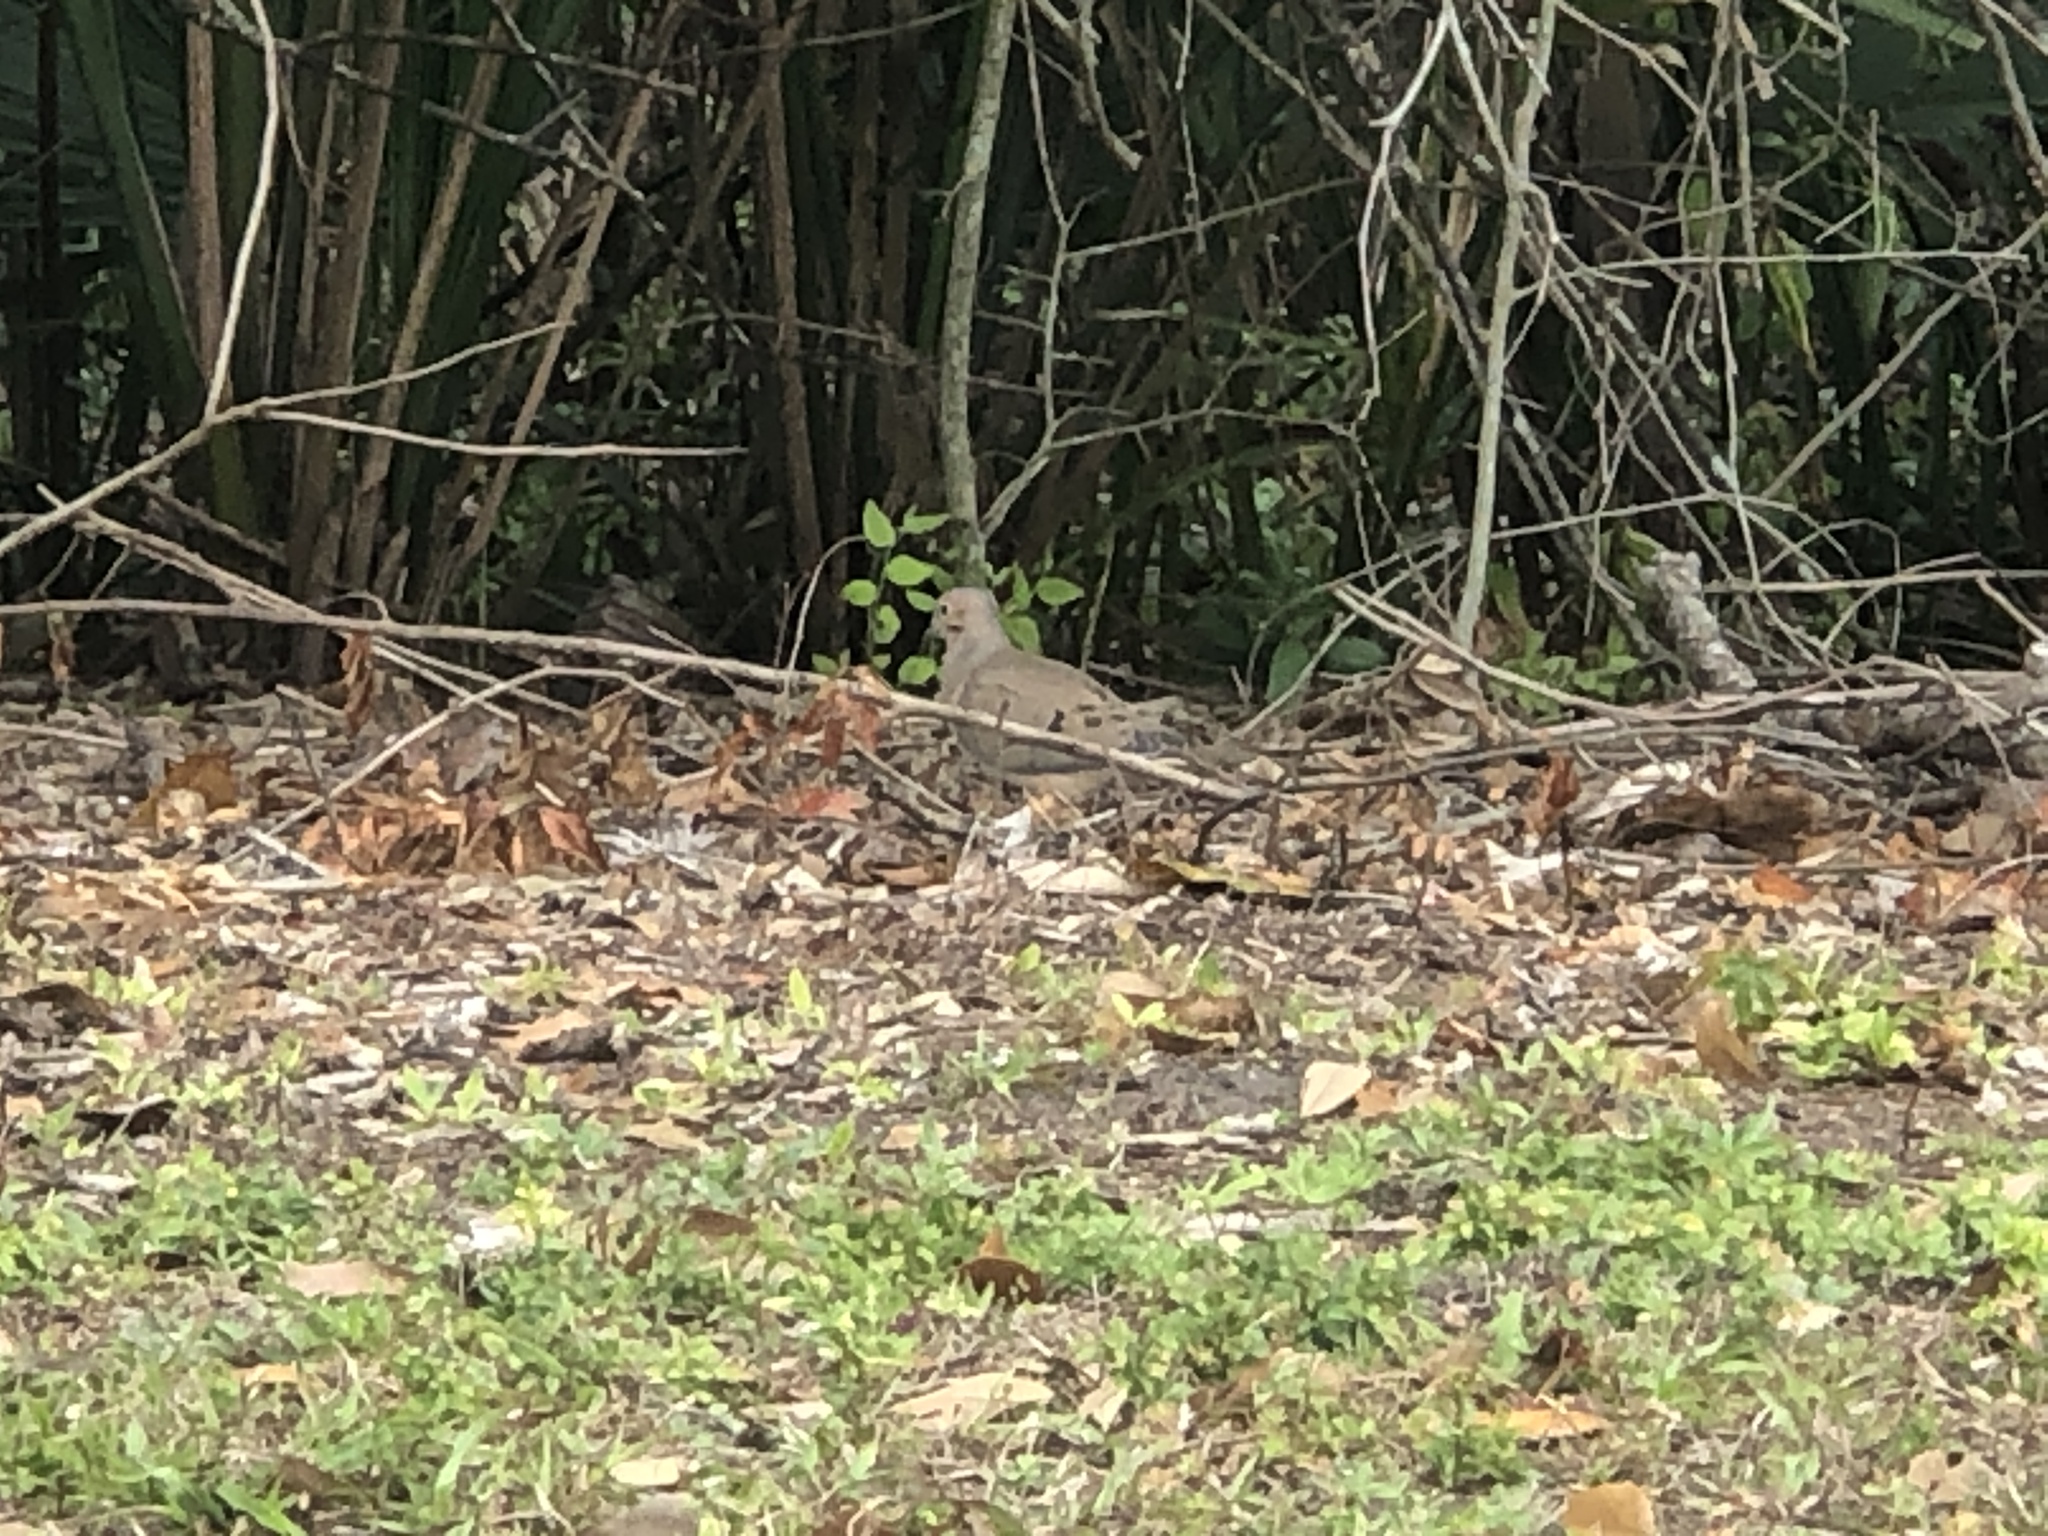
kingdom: Animalia
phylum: Chordata
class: Aves
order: Columbiformes
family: Columbidae
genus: Zenaida
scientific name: Zenaida macroura
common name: Mourning dove
